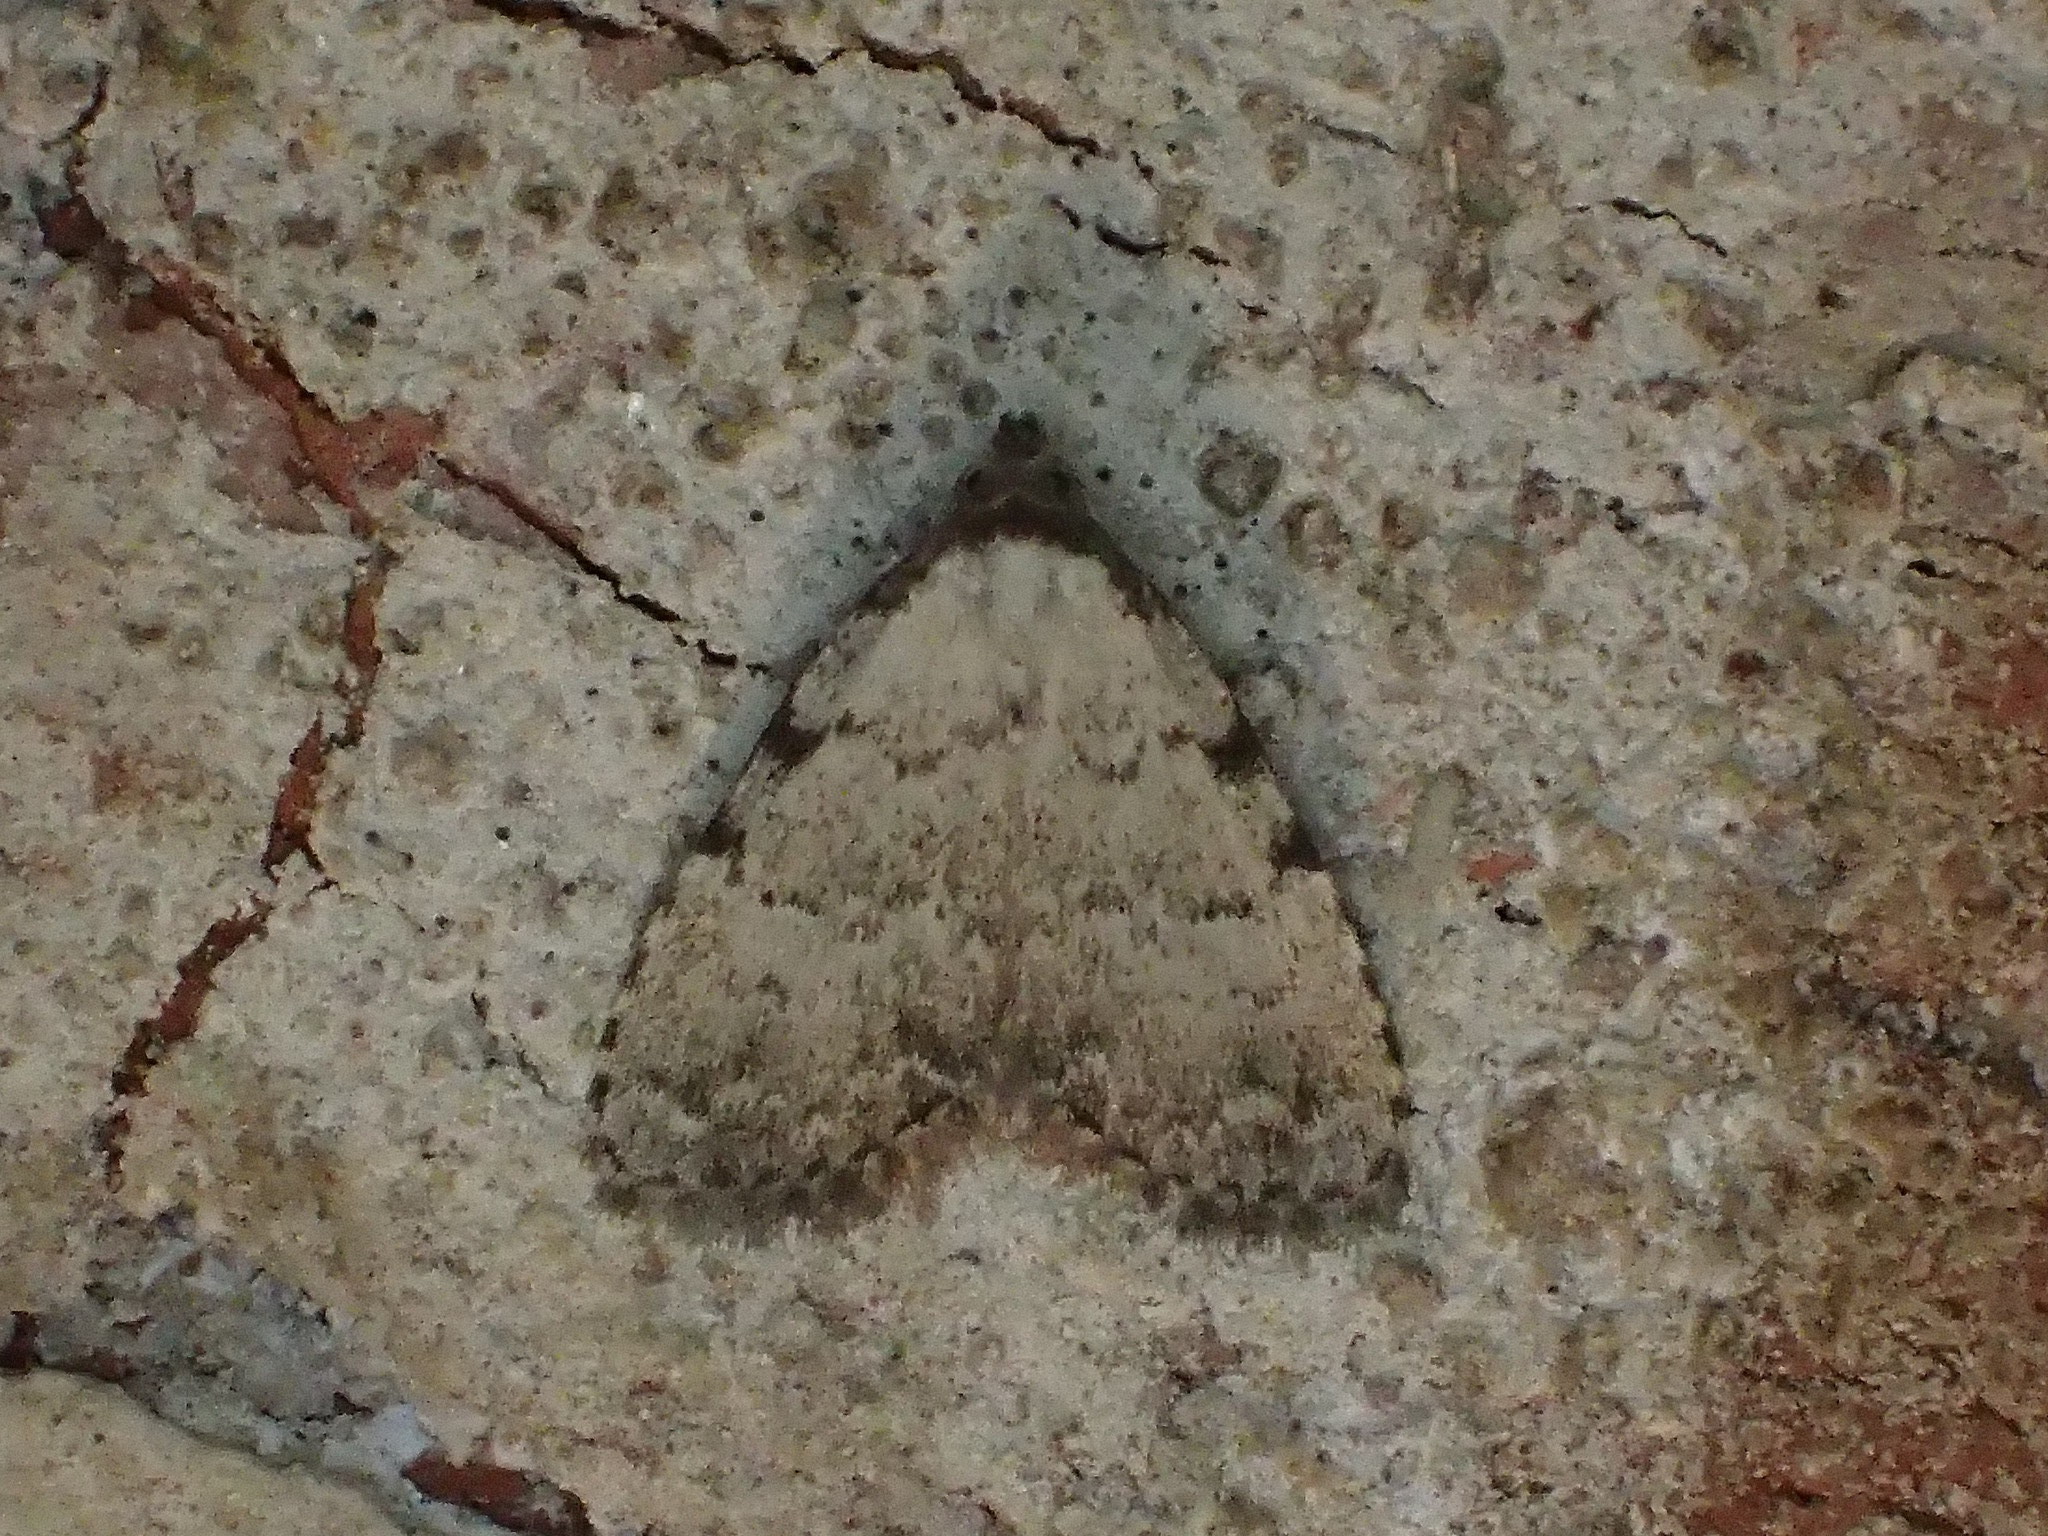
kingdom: Animalia
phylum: Arthropoda
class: Insecta
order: Lepidoptera
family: Erebidae
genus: Dyspyralis
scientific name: Dyspyralis puncticosta
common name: Spot-edged dyspyralis moth
